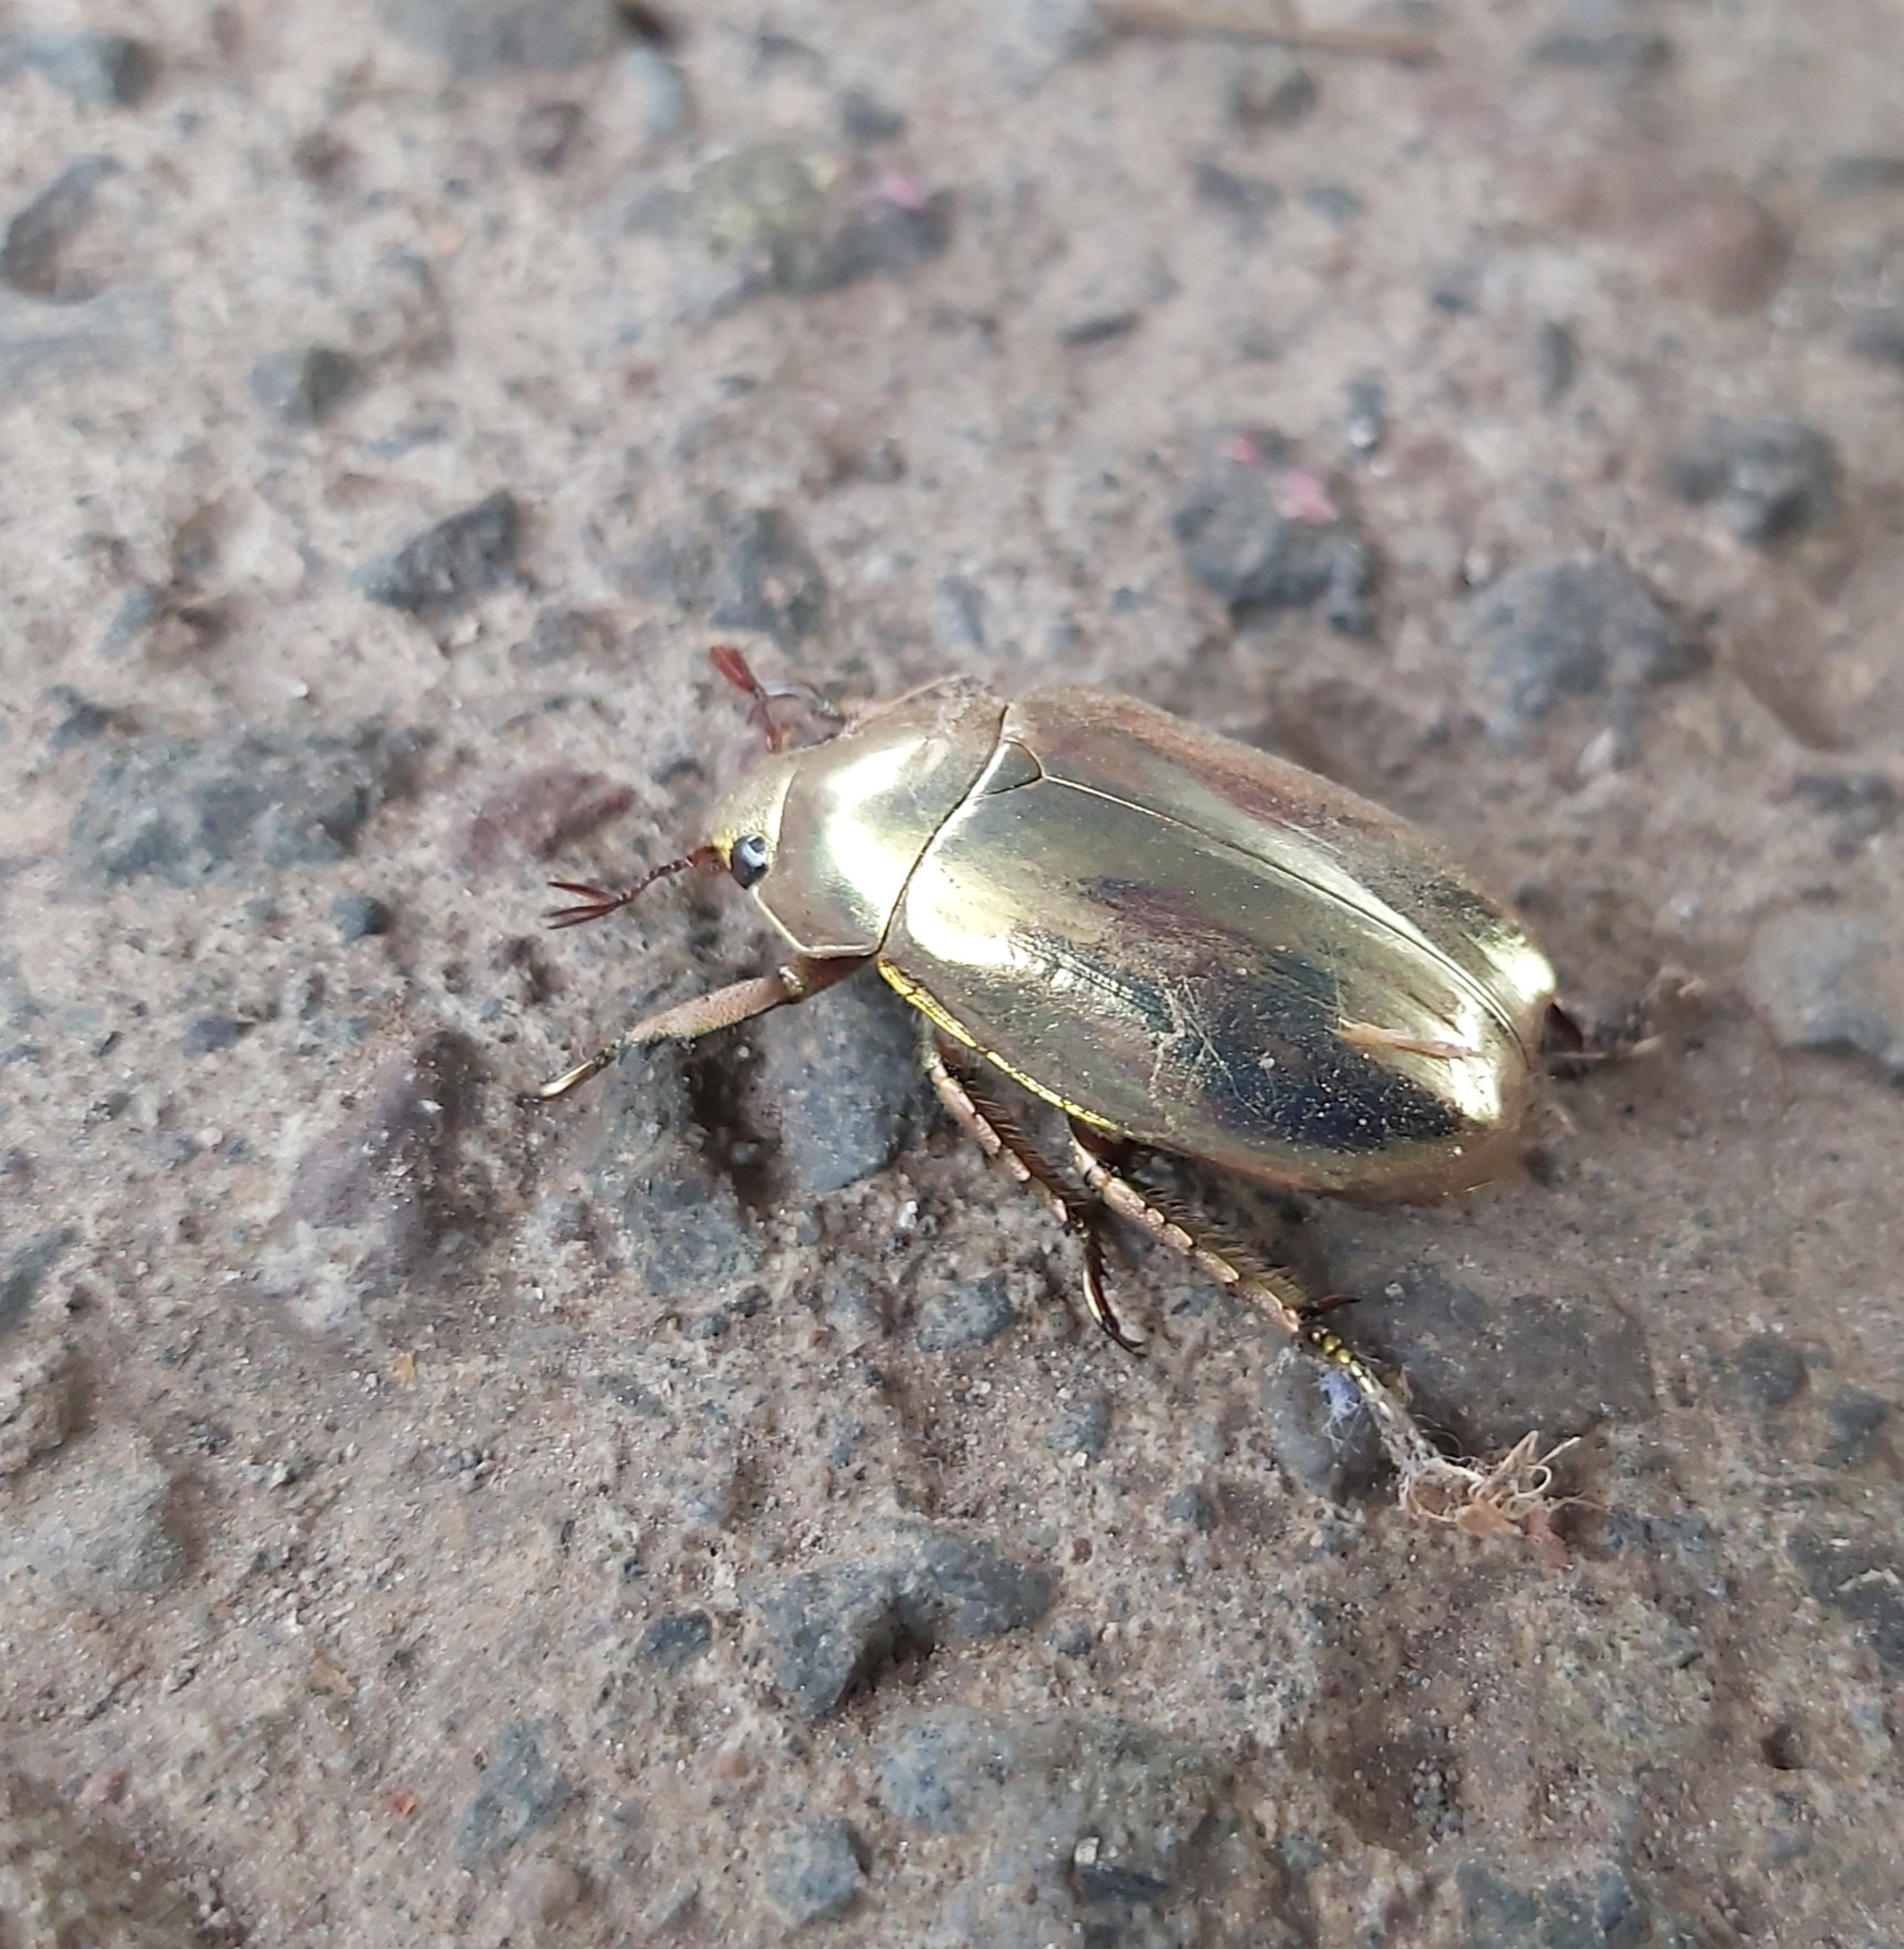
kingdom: Animalia
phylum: Arthropoda
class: Insecta
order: Coleoptera
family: Scarabaeidae
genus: Chrysina
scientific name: Chrysina resplendens
